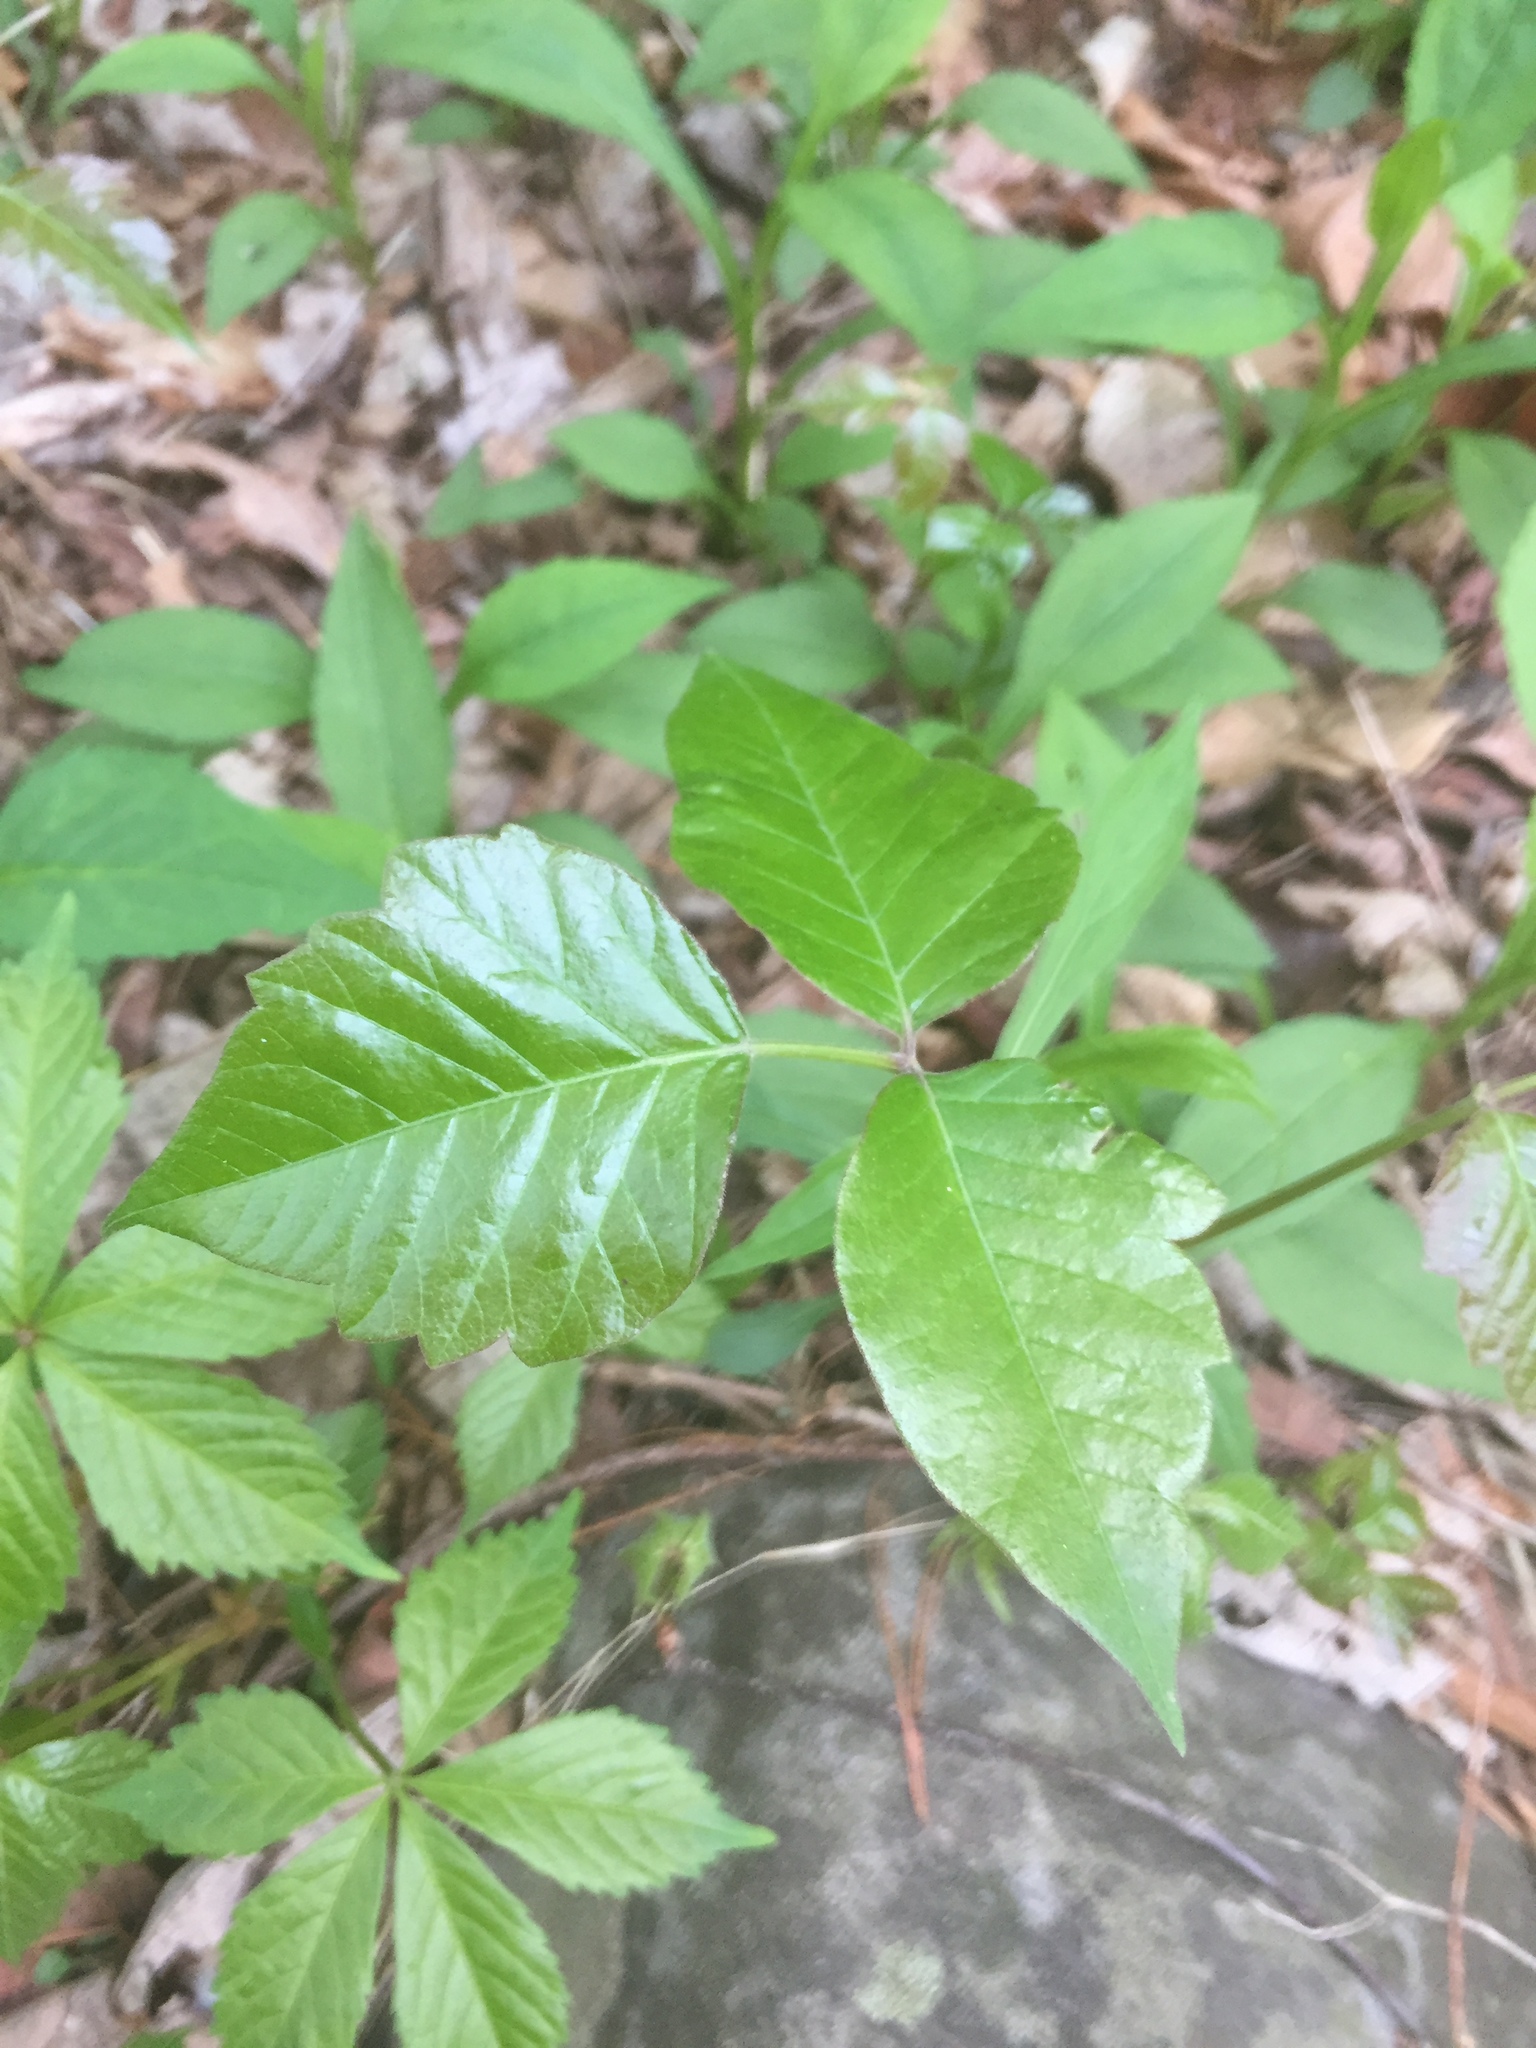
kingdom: Plantae
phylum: Tracheophyta
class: Magnoliopsida
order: Sapindales
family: Anacardiaceae
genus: Toxicodendron
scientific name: Toxicodendron radicans
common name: Poison ivy
